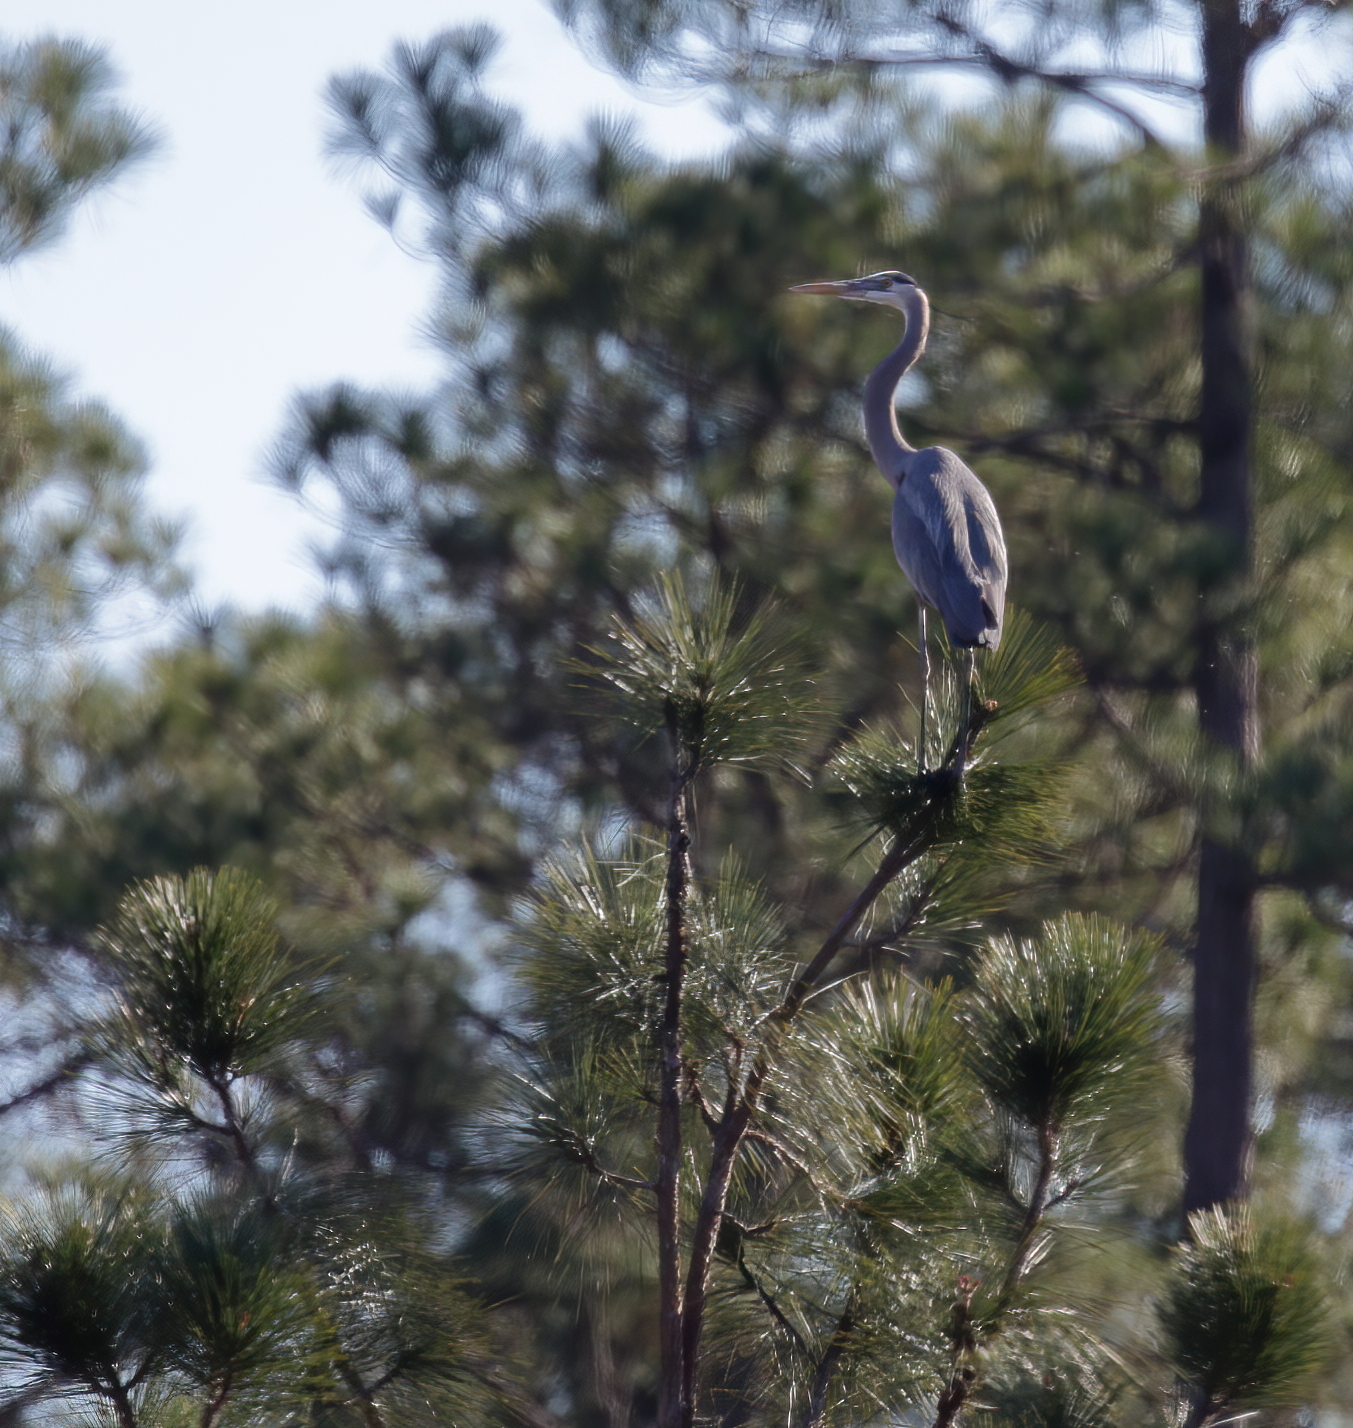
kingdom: Animalia
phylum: Chordata
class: Aves
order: Pelecaniformes
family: Ardeidae
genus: Ardea
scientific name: Ardea herodias
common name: Great blue heron
